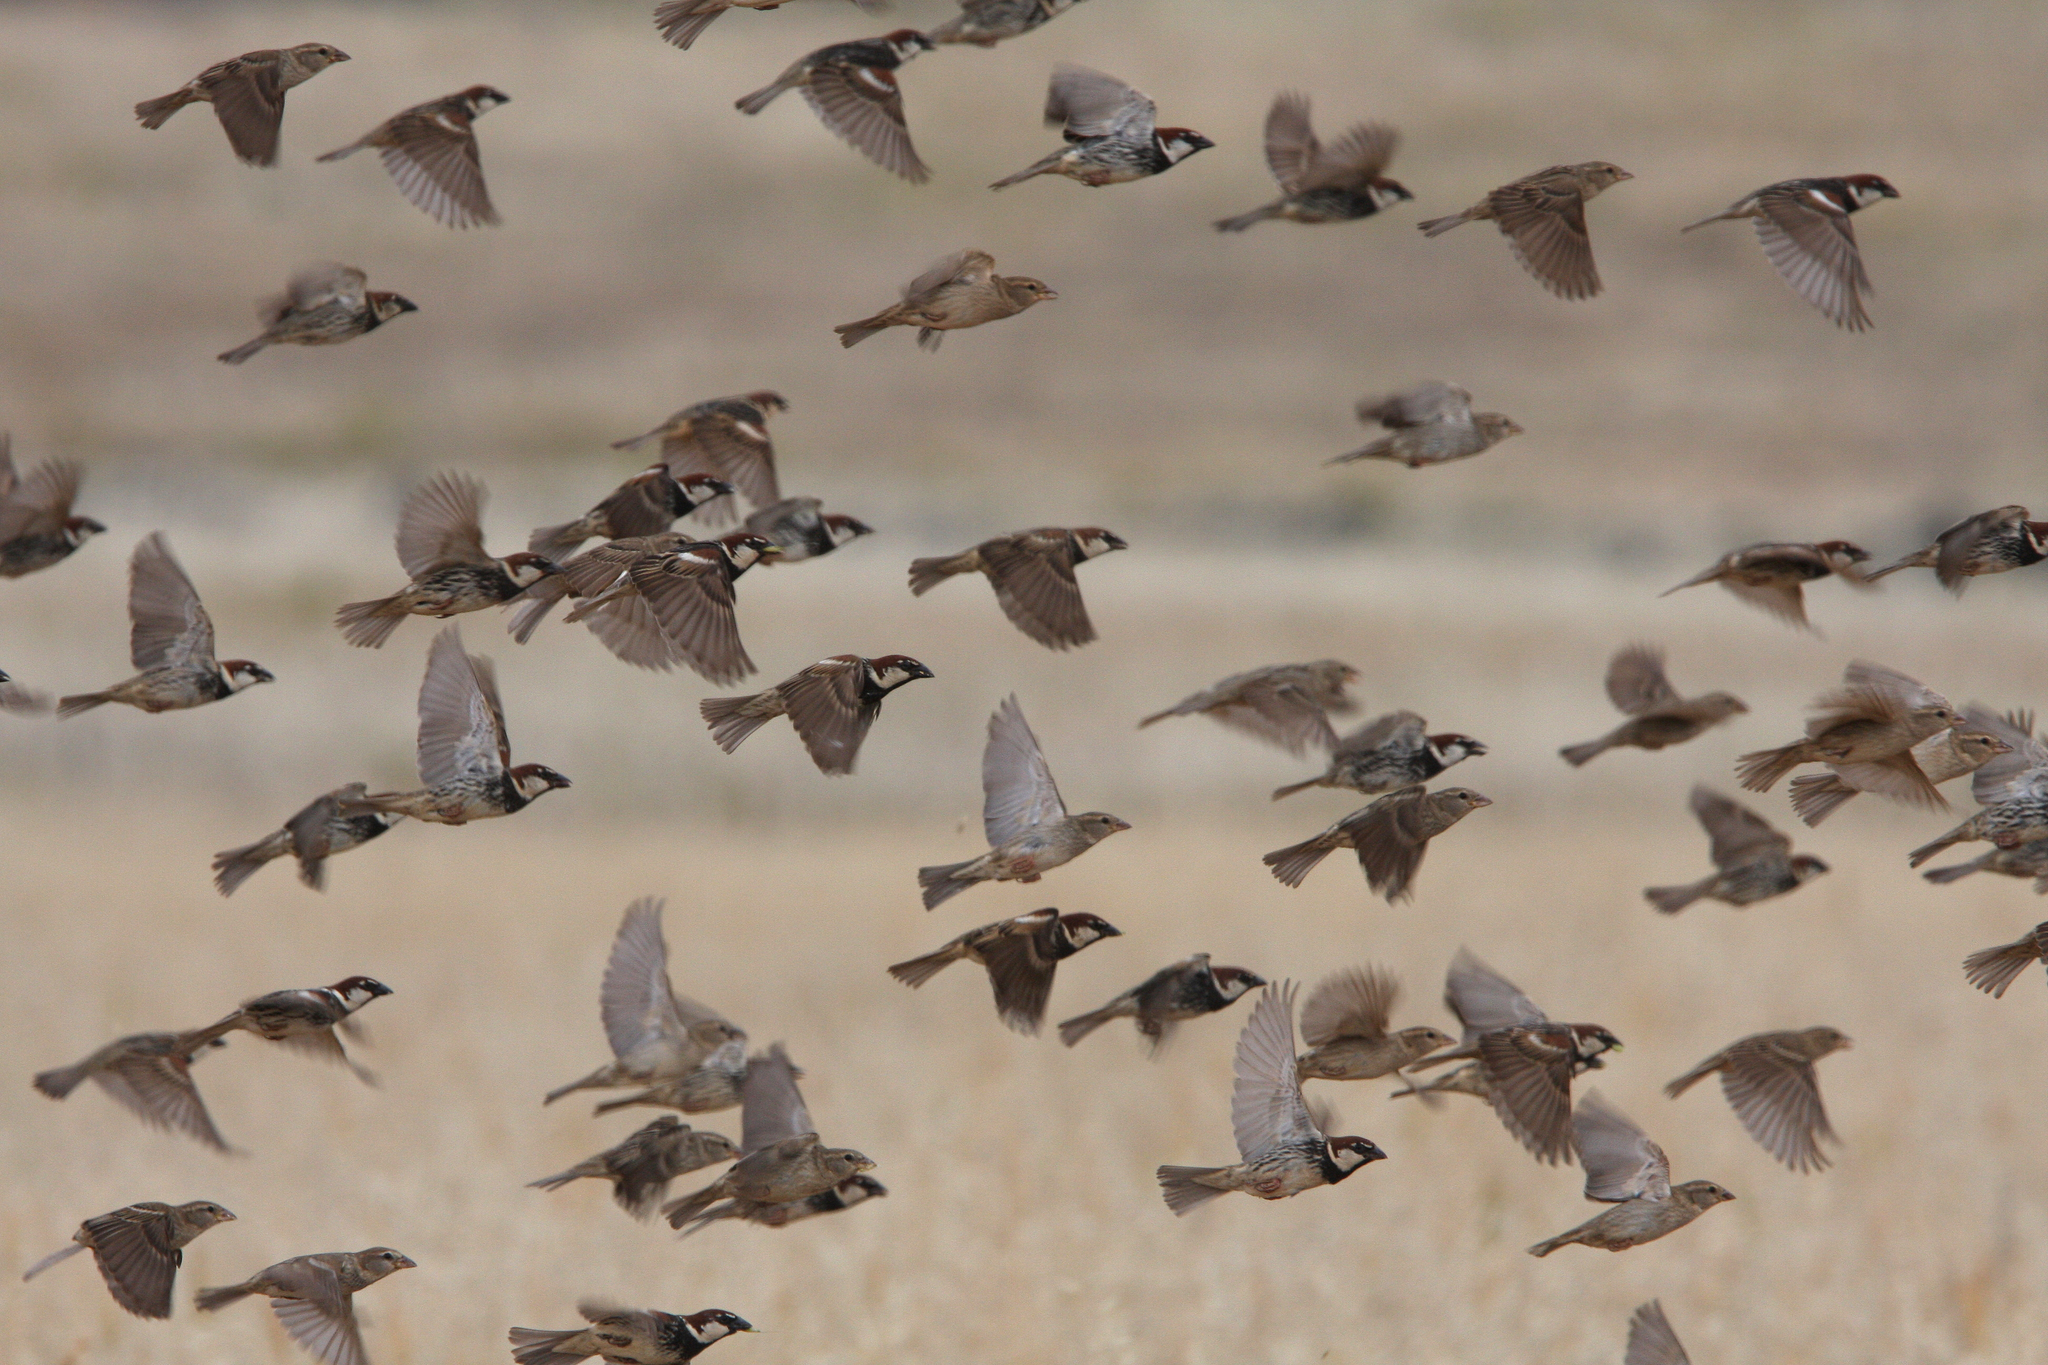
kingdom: Animalia
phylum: Chordata
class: Aves
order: Passeriformes
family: Passeridae
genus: Passer
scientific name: Passer hispaniolensis
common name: Spanish sparrow
